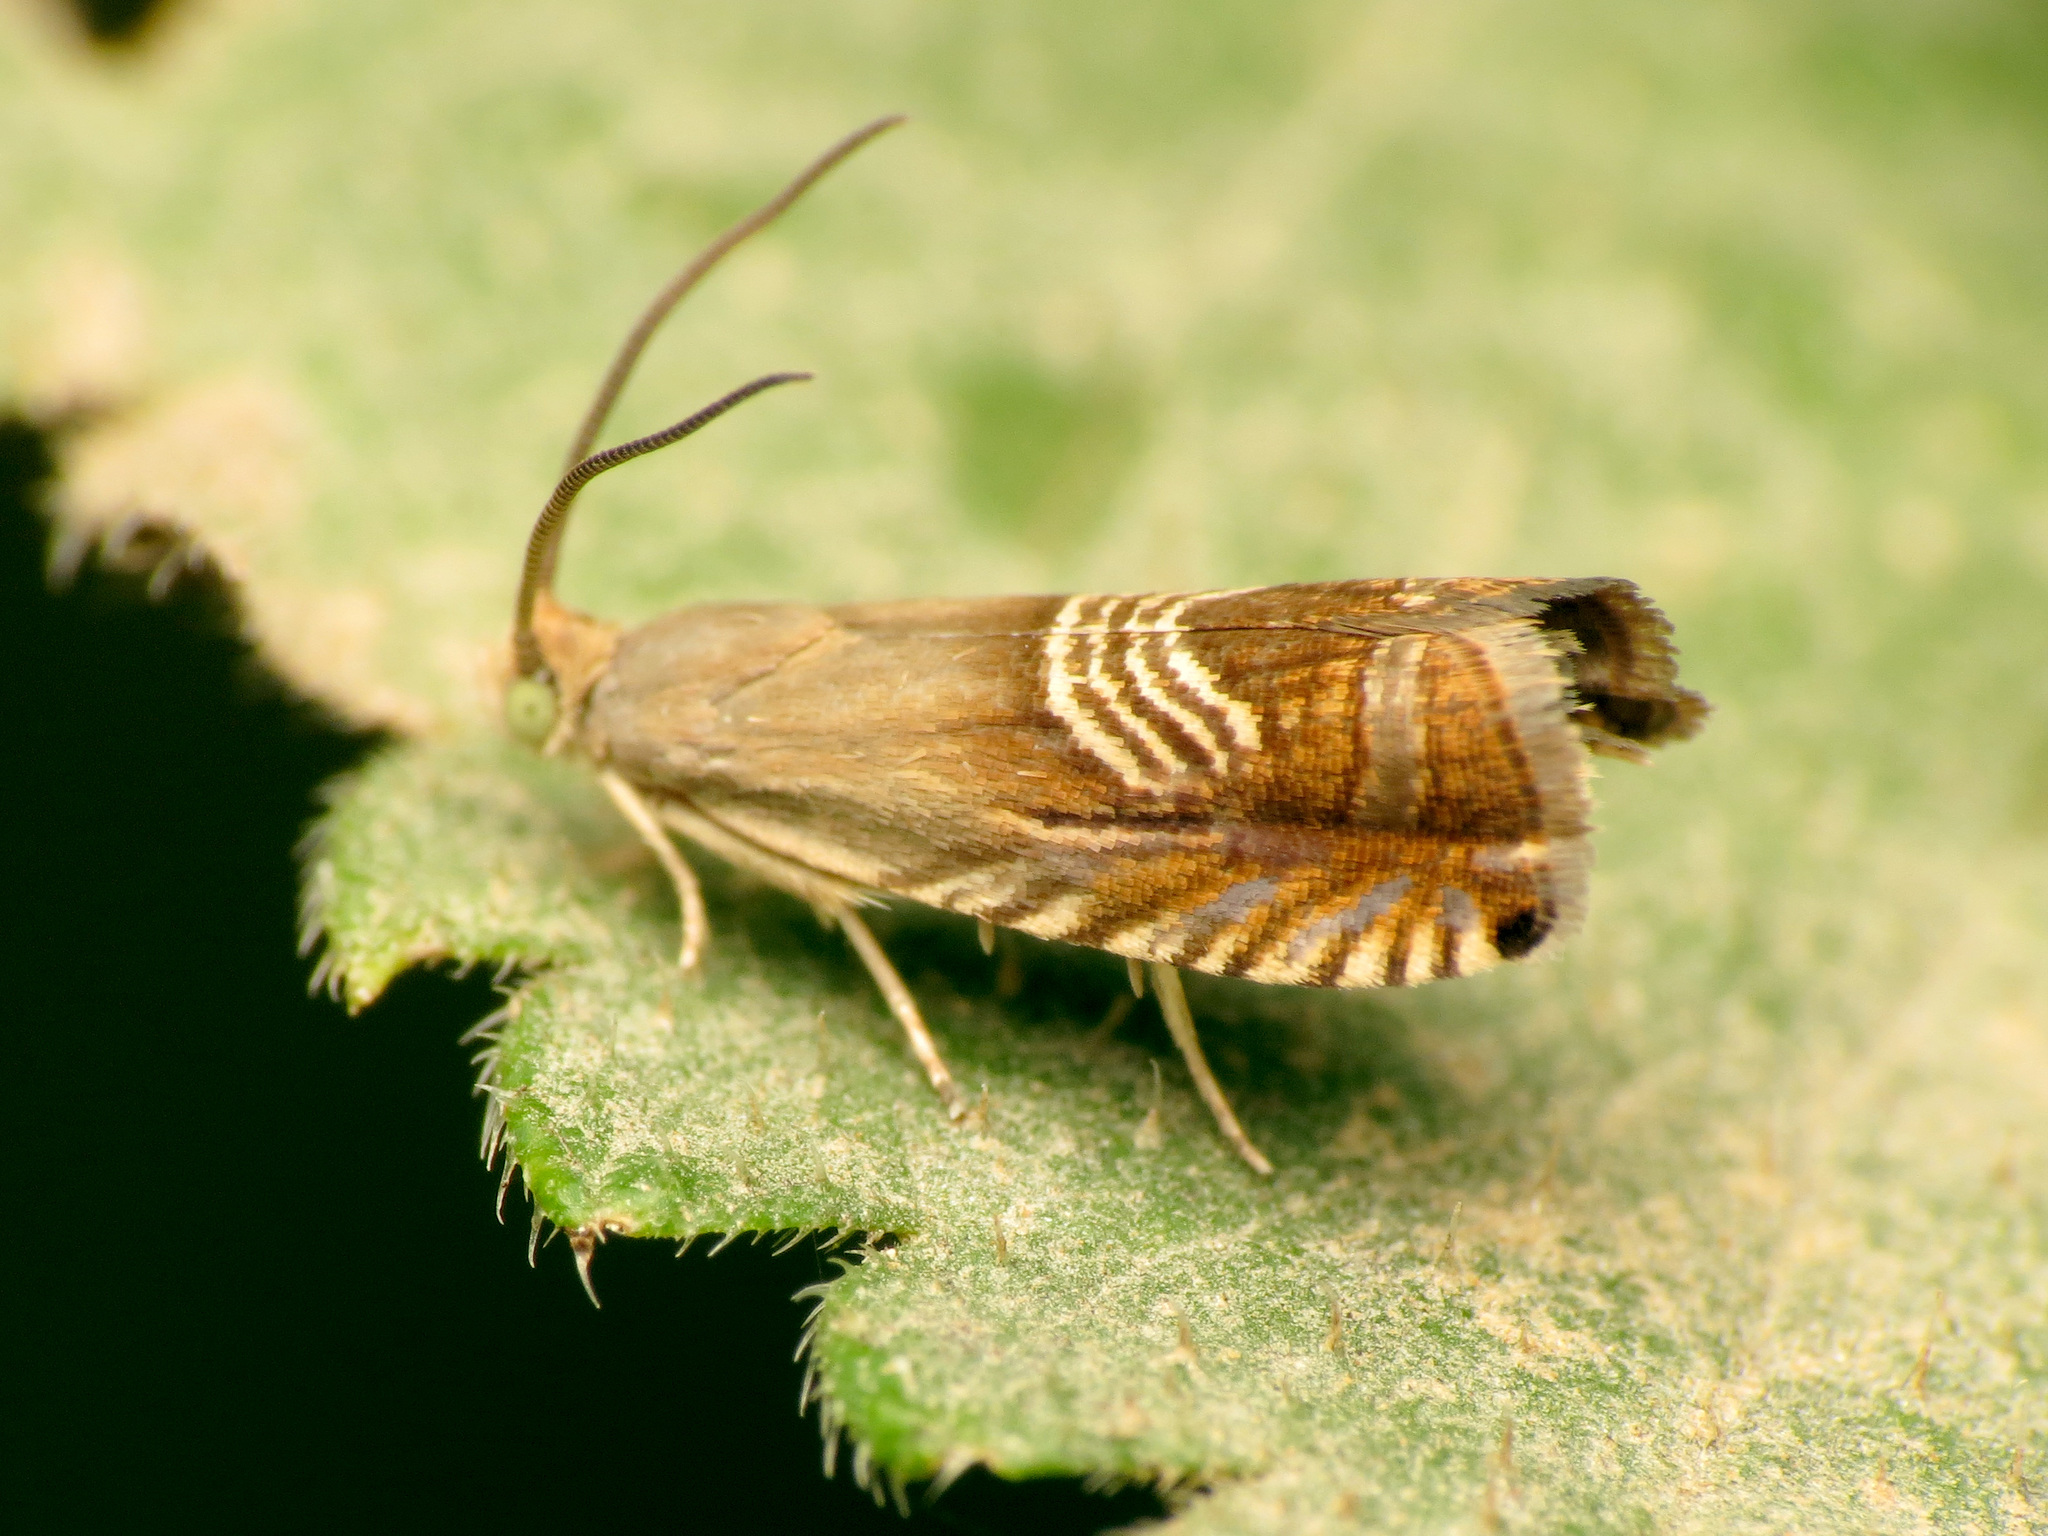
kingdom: Animalia
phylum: Arthropoda
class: Insecta
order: Lepidoptera
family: Tortricidae
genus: Grapholita
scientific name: Grapholita tristrigana
